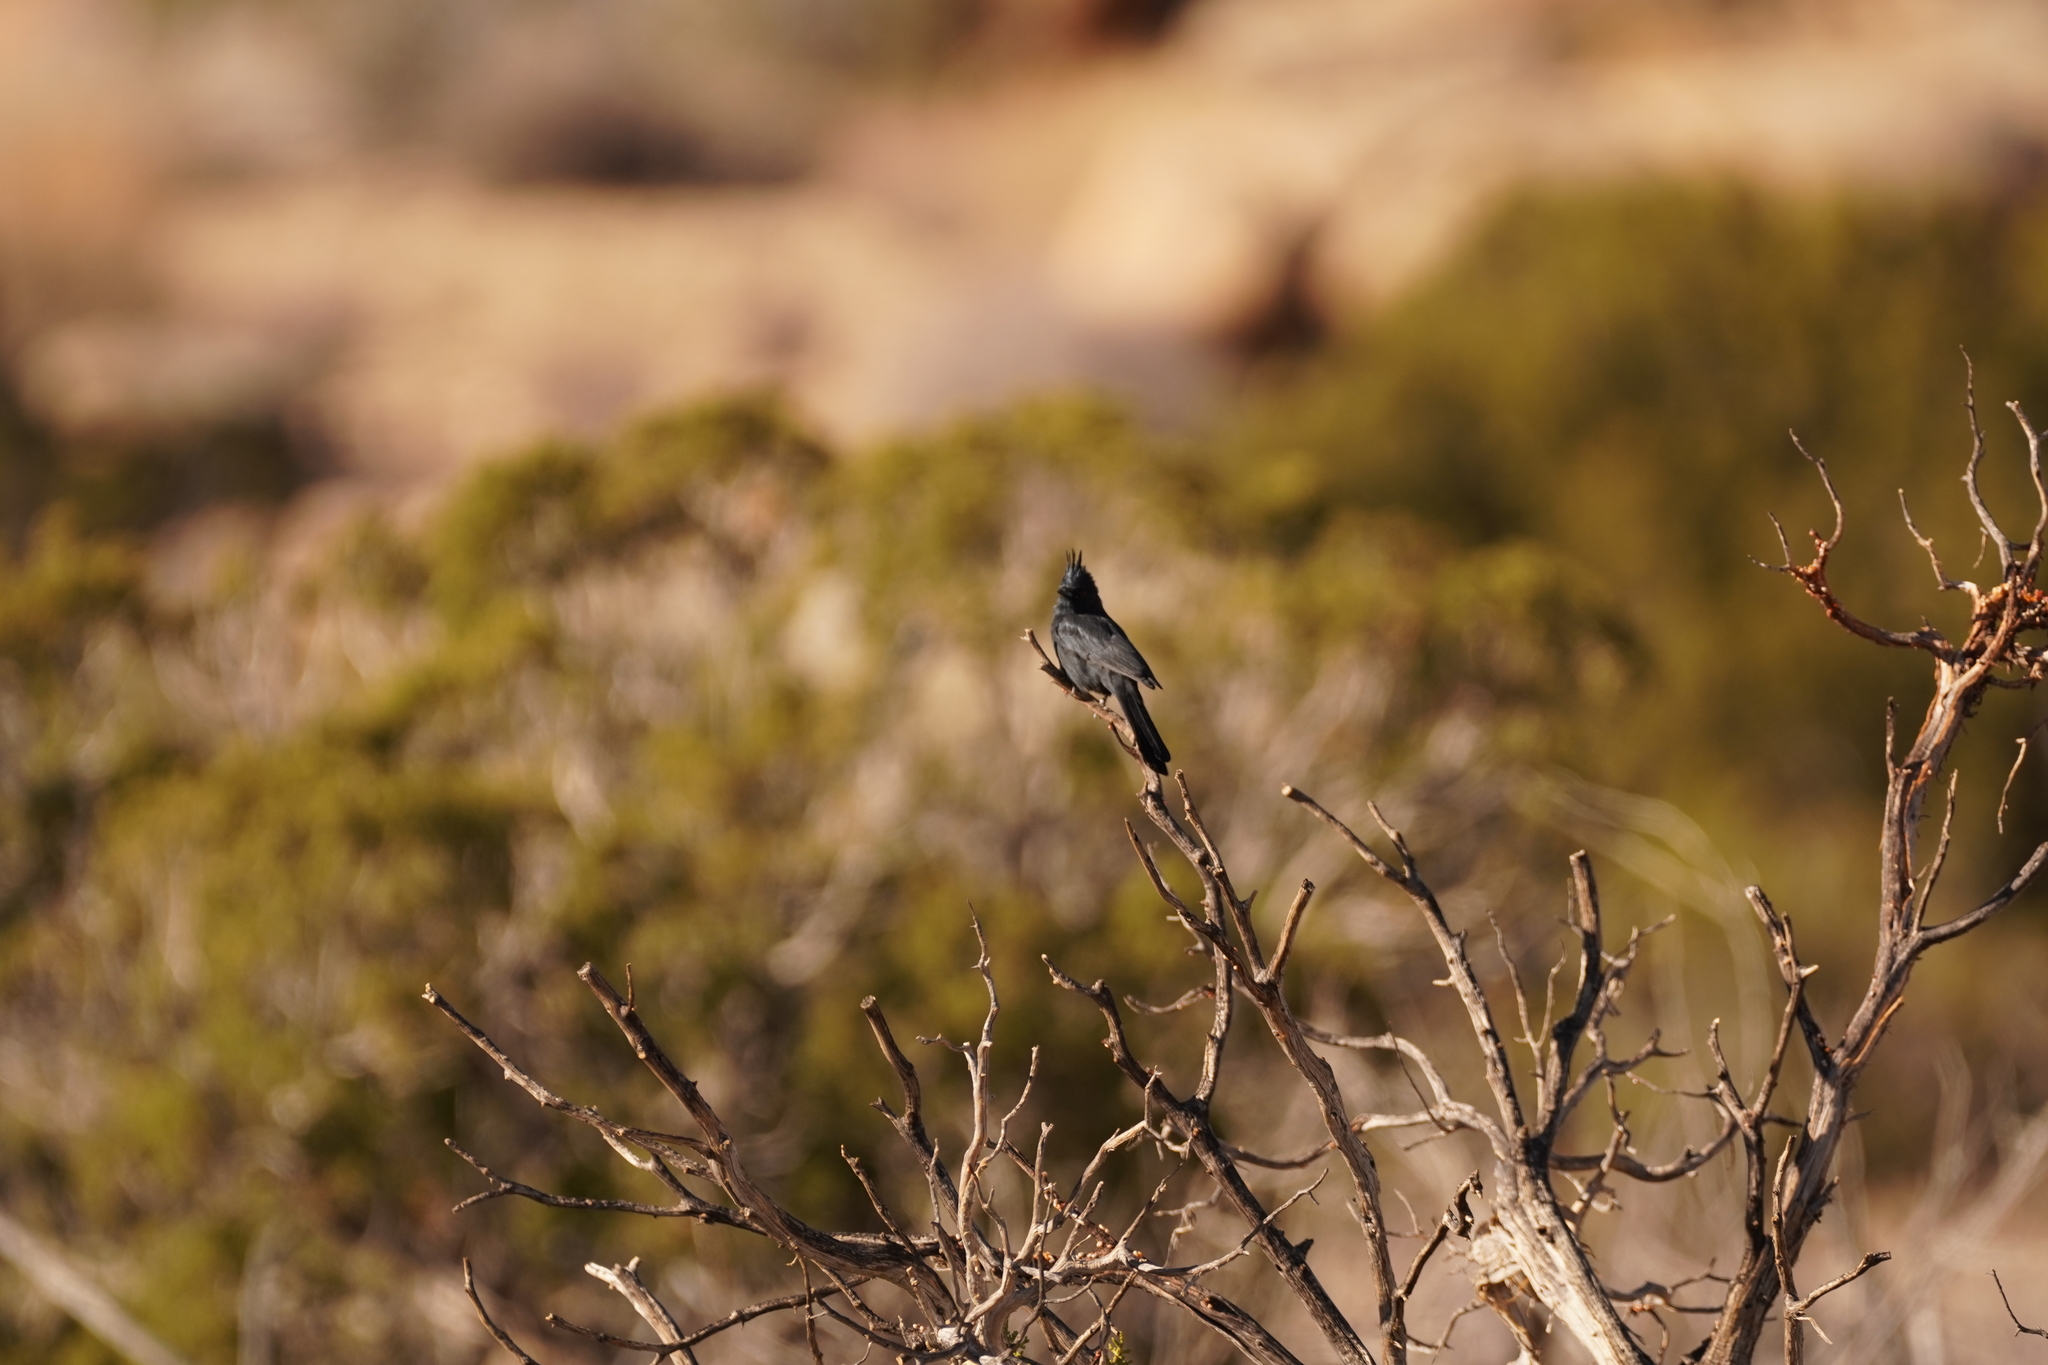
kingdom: Animalia
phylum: Chordata
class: Aves
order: Passeriformes
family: Ptilogonatidae
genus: Phainopepla
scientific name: Phainopepla nitens
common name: Phainopepla
